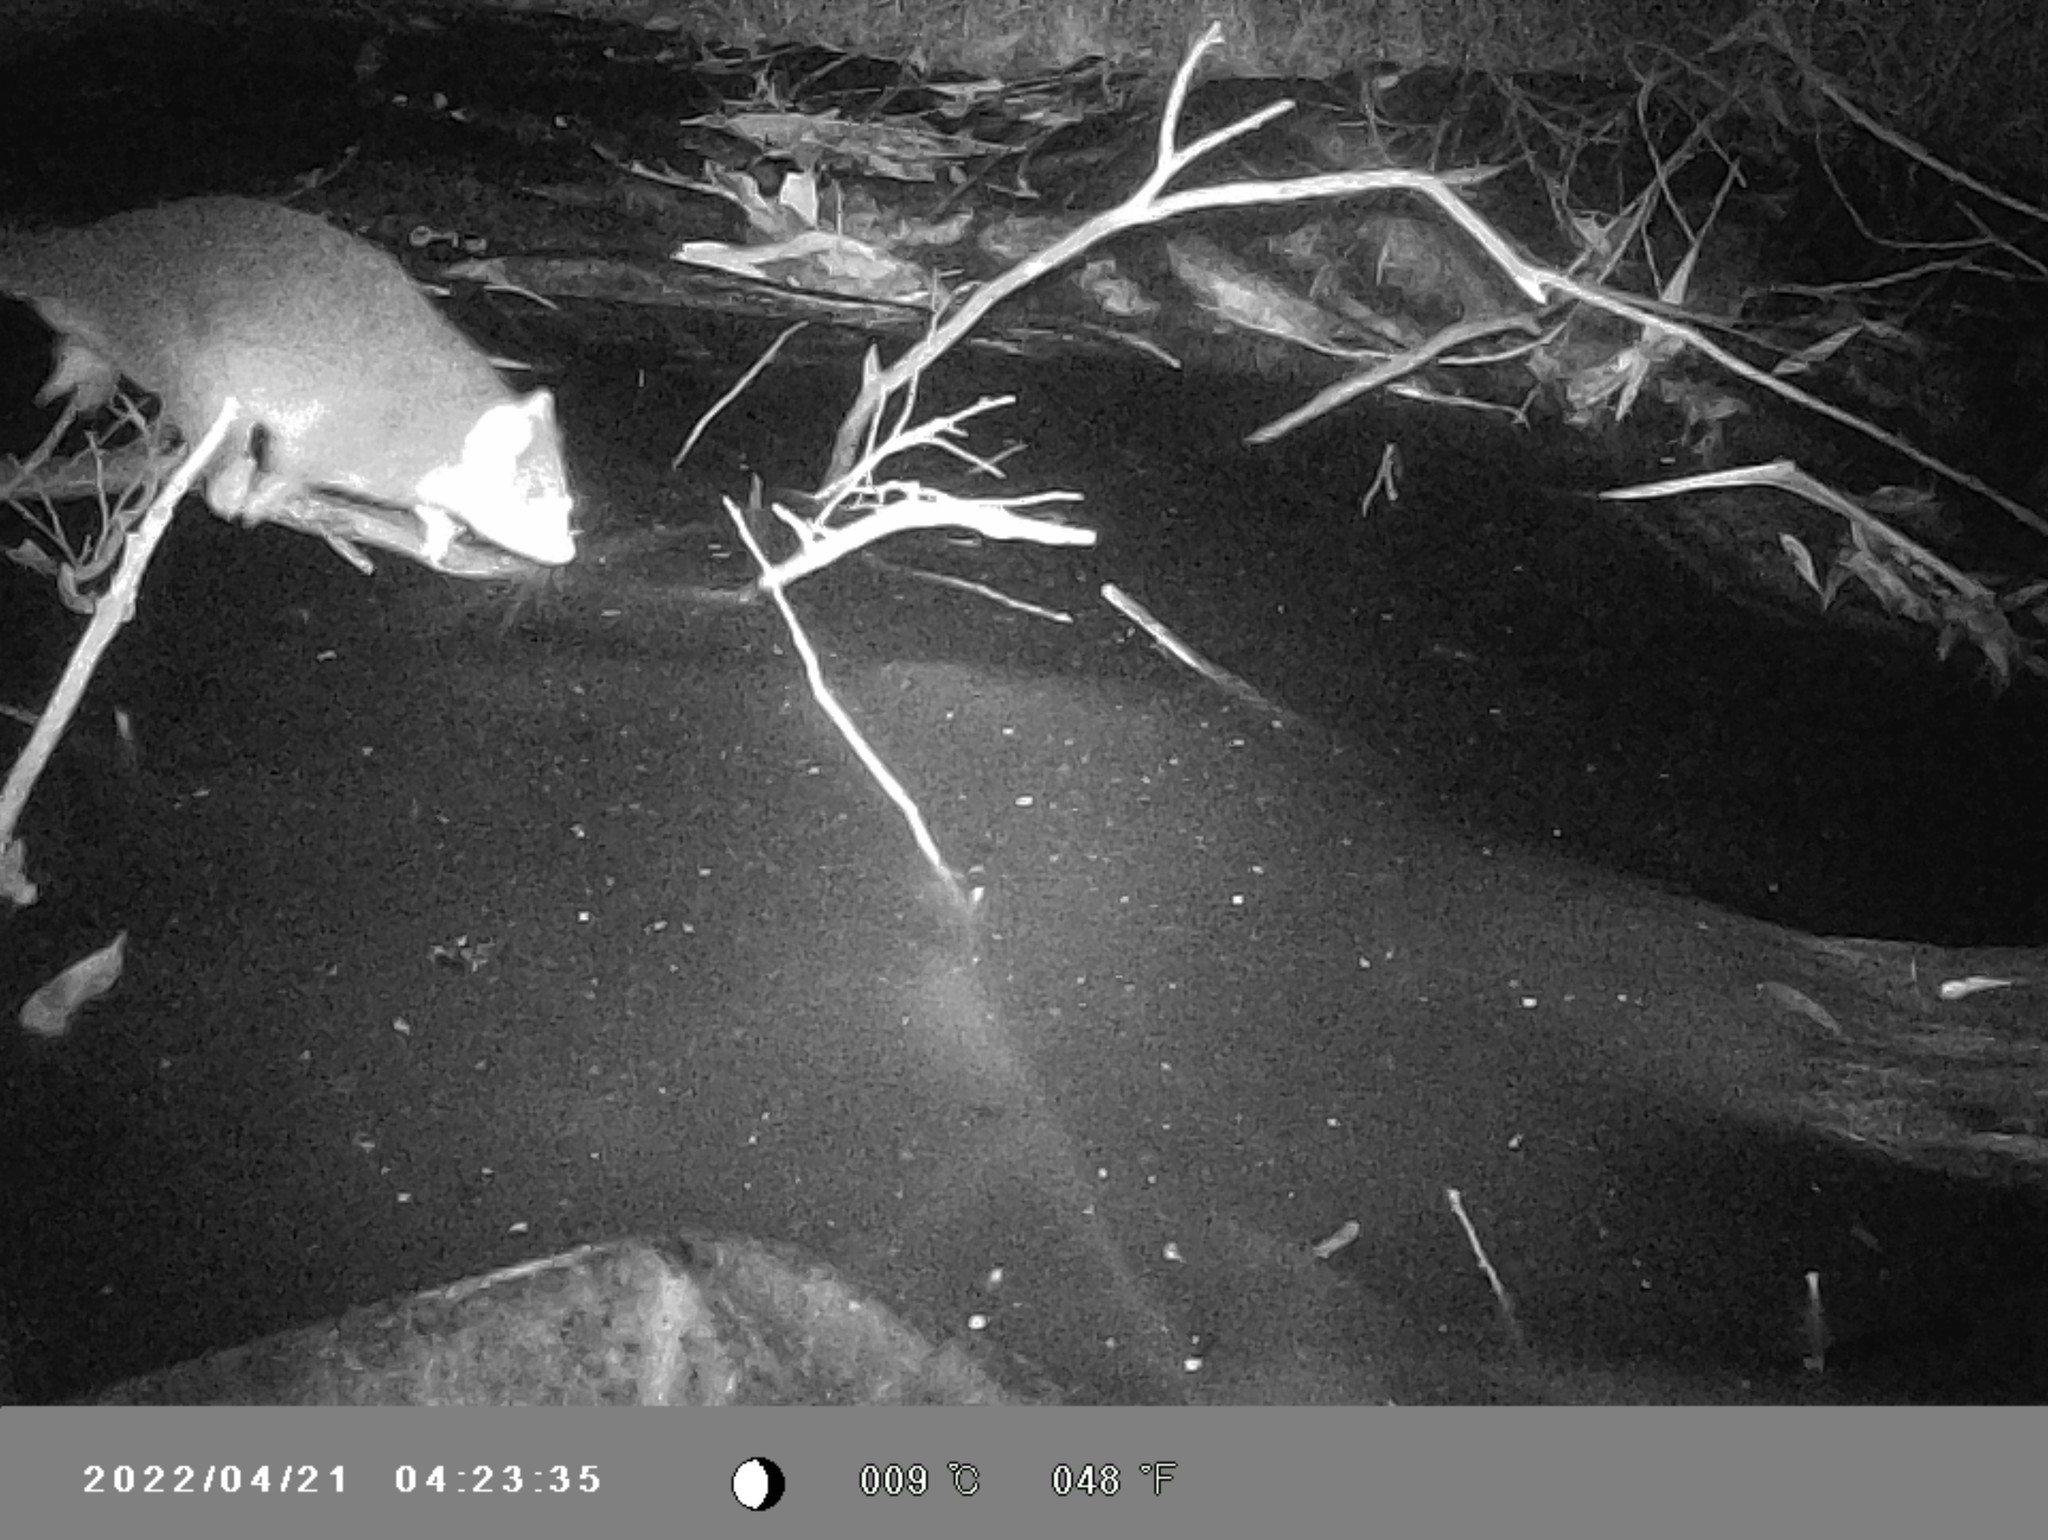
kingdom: Animalia
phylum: Chordata
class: Mammalia
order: Diprotodontia
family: Pseudocheiridae
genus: Pseudocheirus
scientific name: Pseudocheirus peregrinus
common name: Common ringtail possum
